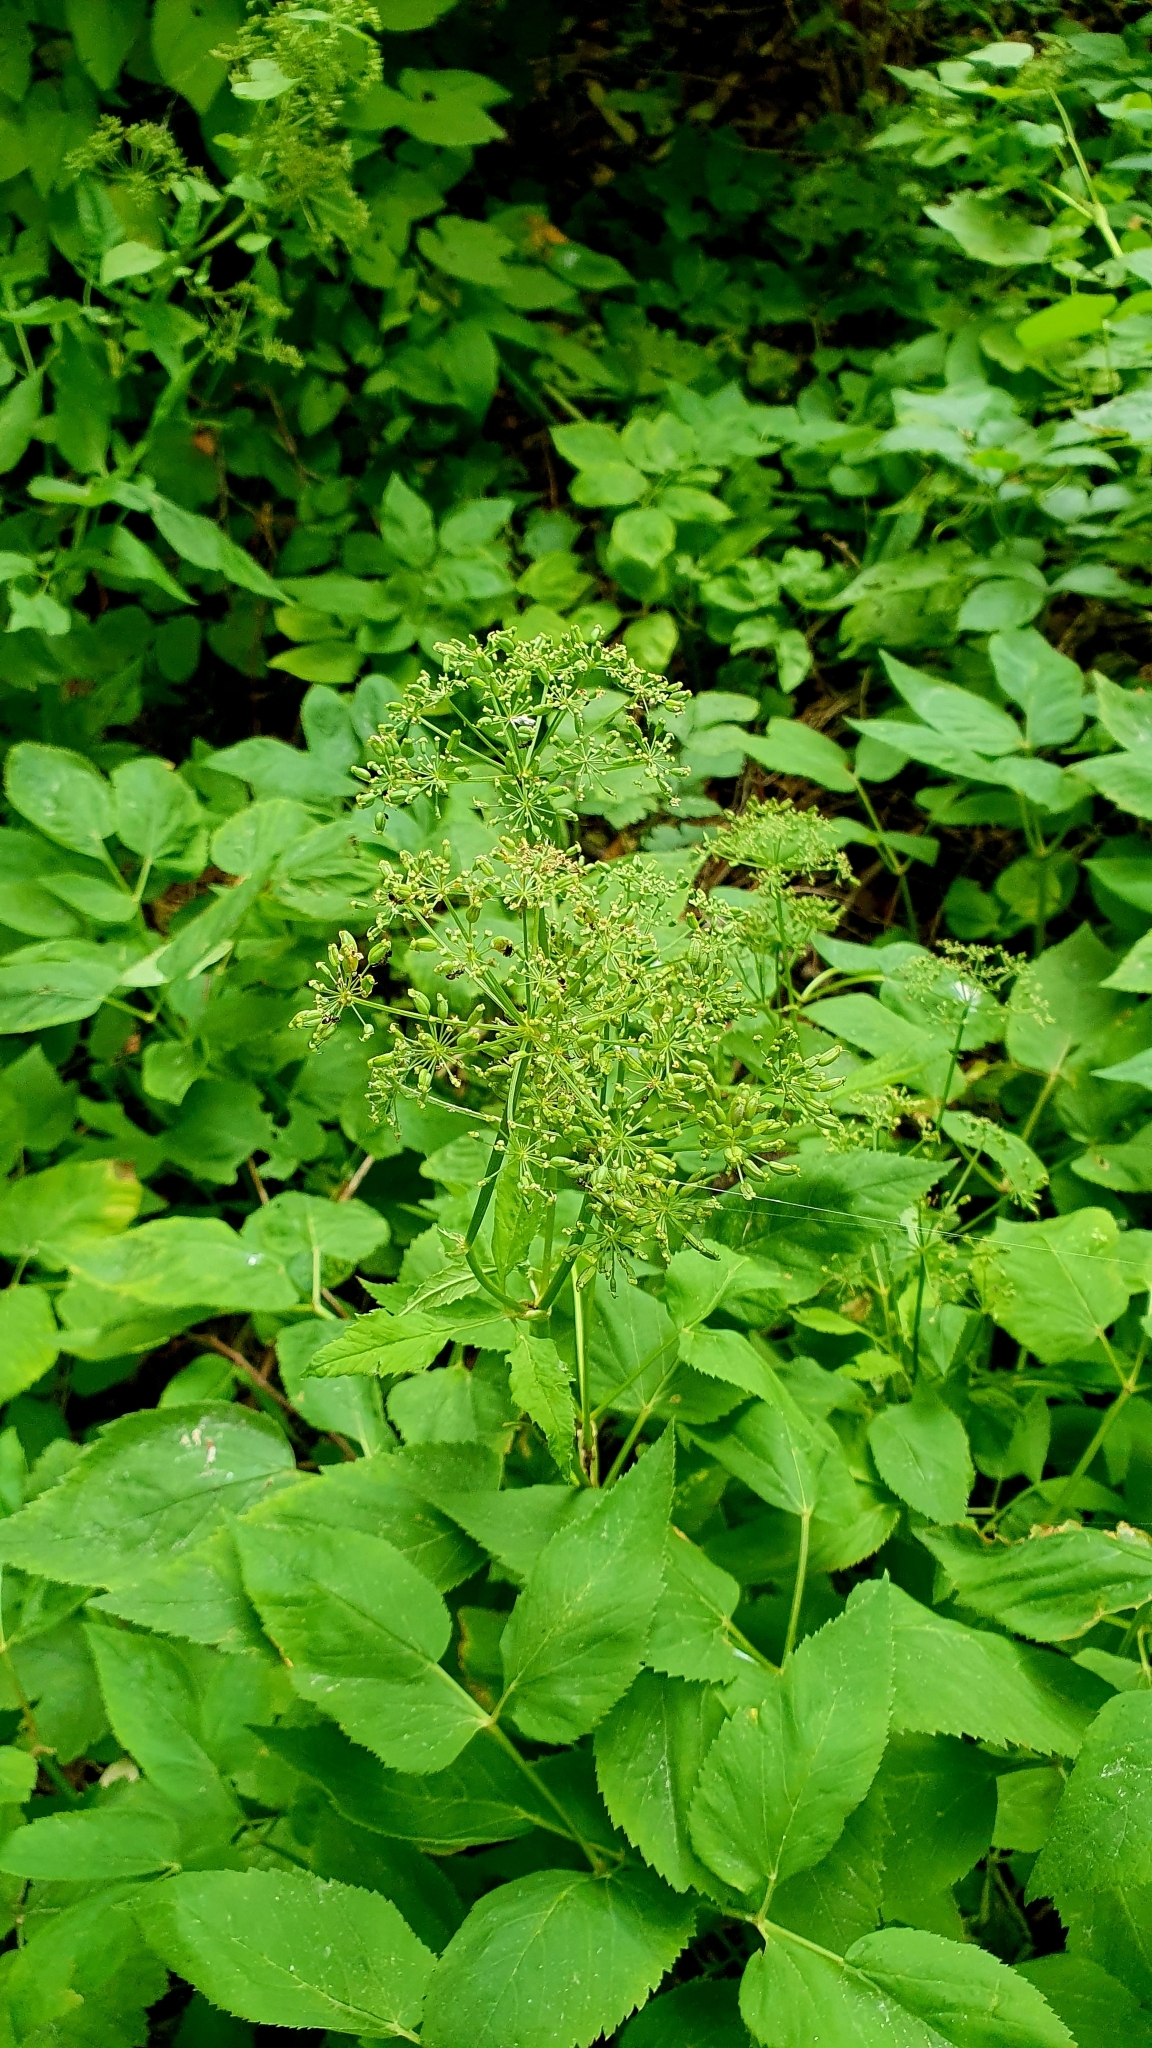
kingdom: Plantae
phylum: Tracheophyta
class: Magnoliopsida
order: Apiales
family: Apiaceae
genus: Aegopodium
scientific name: Aegopodium podagraria
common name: Ground-elder
